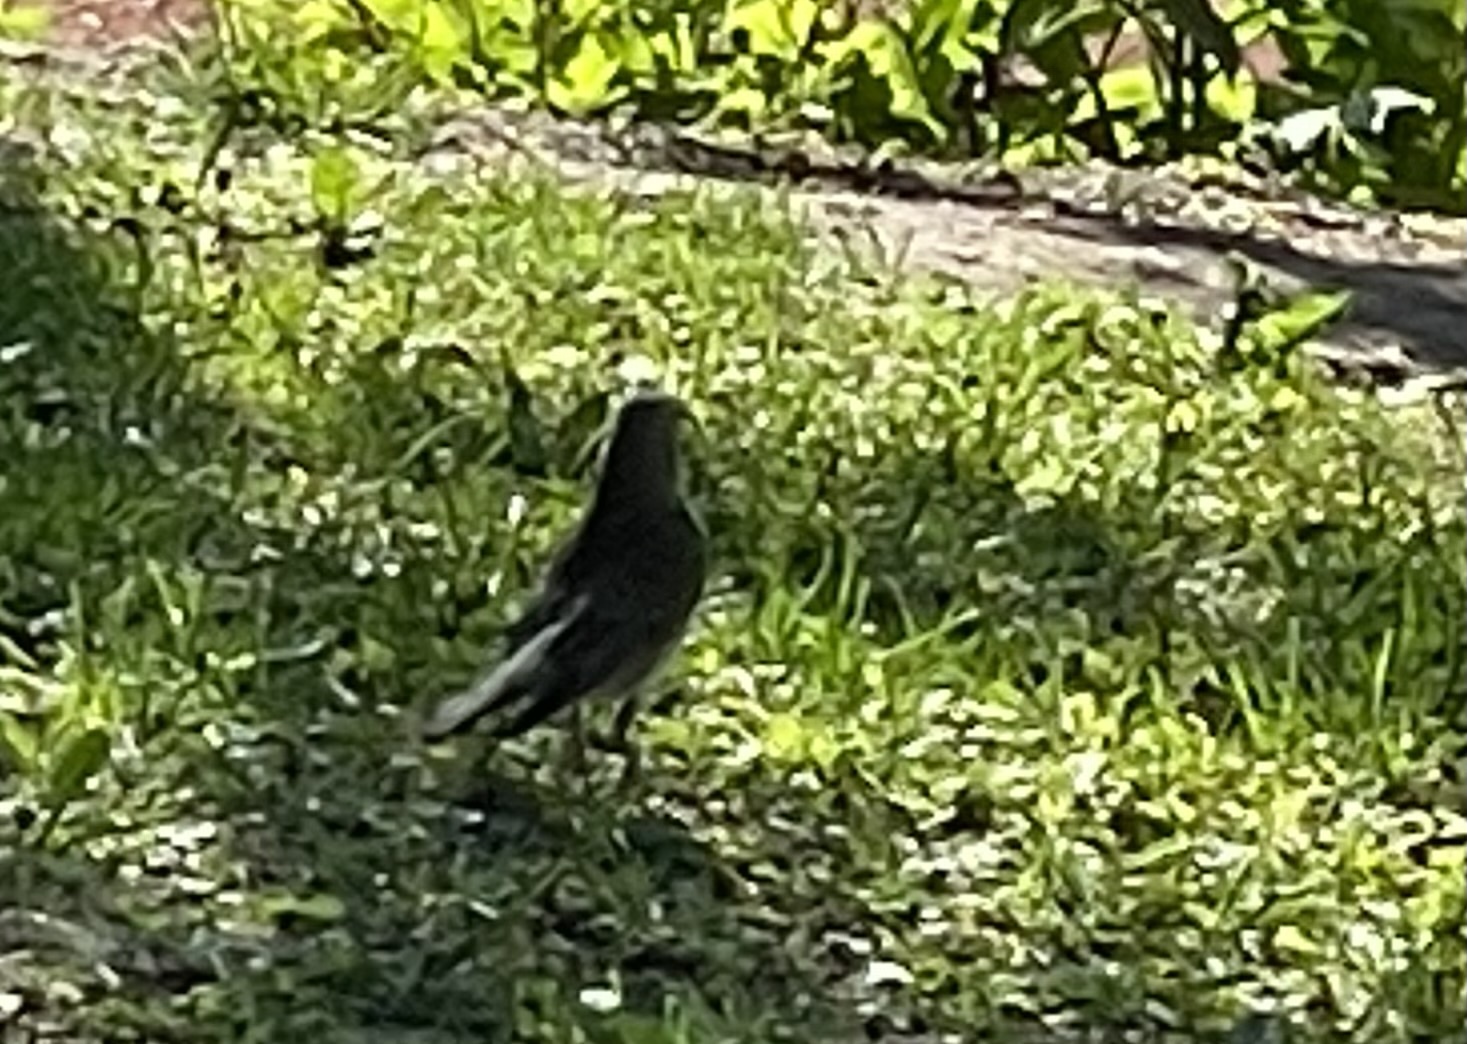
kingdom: Animalia
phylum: Chordata
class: Aves
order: Passeriformes
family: Turdidae
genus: Turdus
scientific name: Turdus pilaris
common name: Fieldfare
